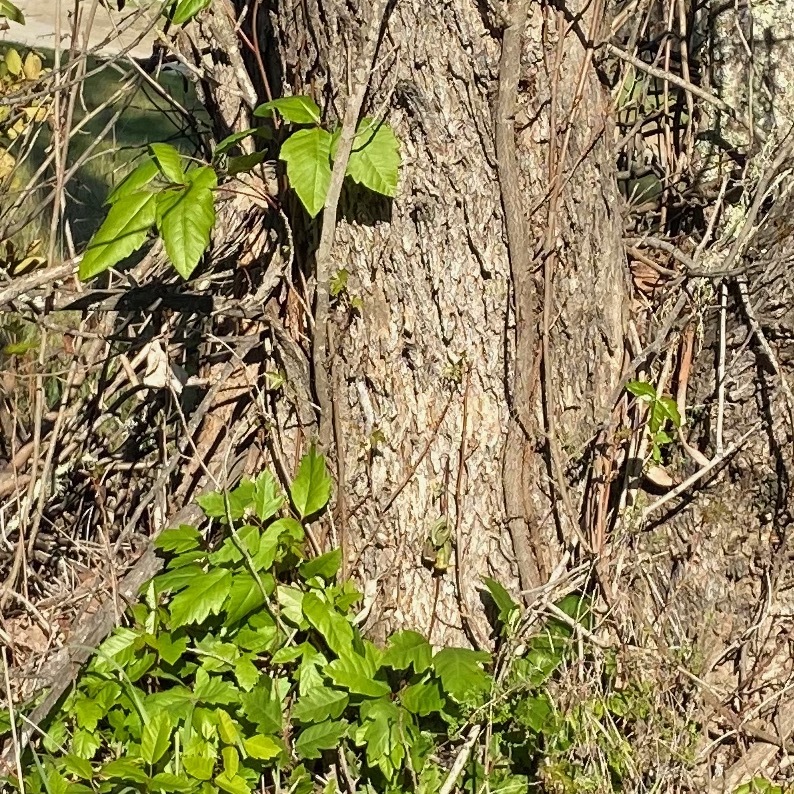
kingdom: Plantae
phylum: Tracheophyta
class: Magnoliopsida
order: Sapindales
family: Anacardiaceae
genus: Toxicodendron
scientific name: Toxicodendron diversilobum
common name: Pacific poison-oak
